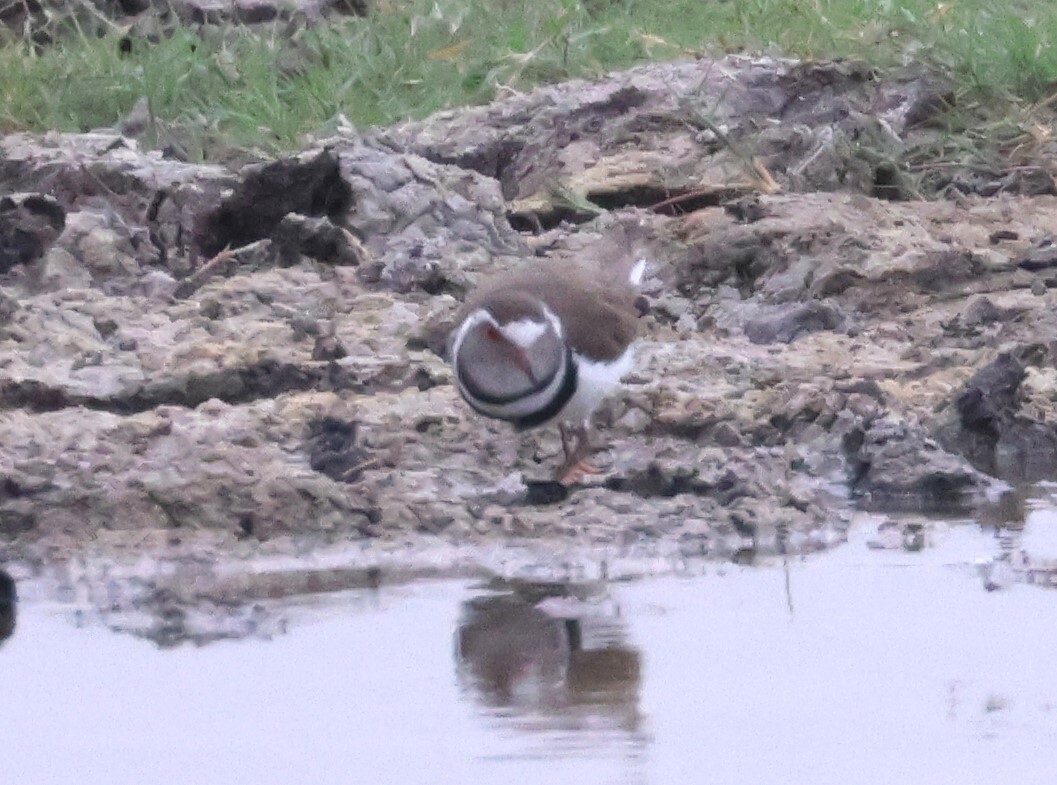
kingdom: Animalia
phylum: Chordata
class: Aves
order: Charadriiformes
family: Charadriidae
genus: Charadrius
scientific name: Charadrius tricollaris
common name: Three-banded plover
